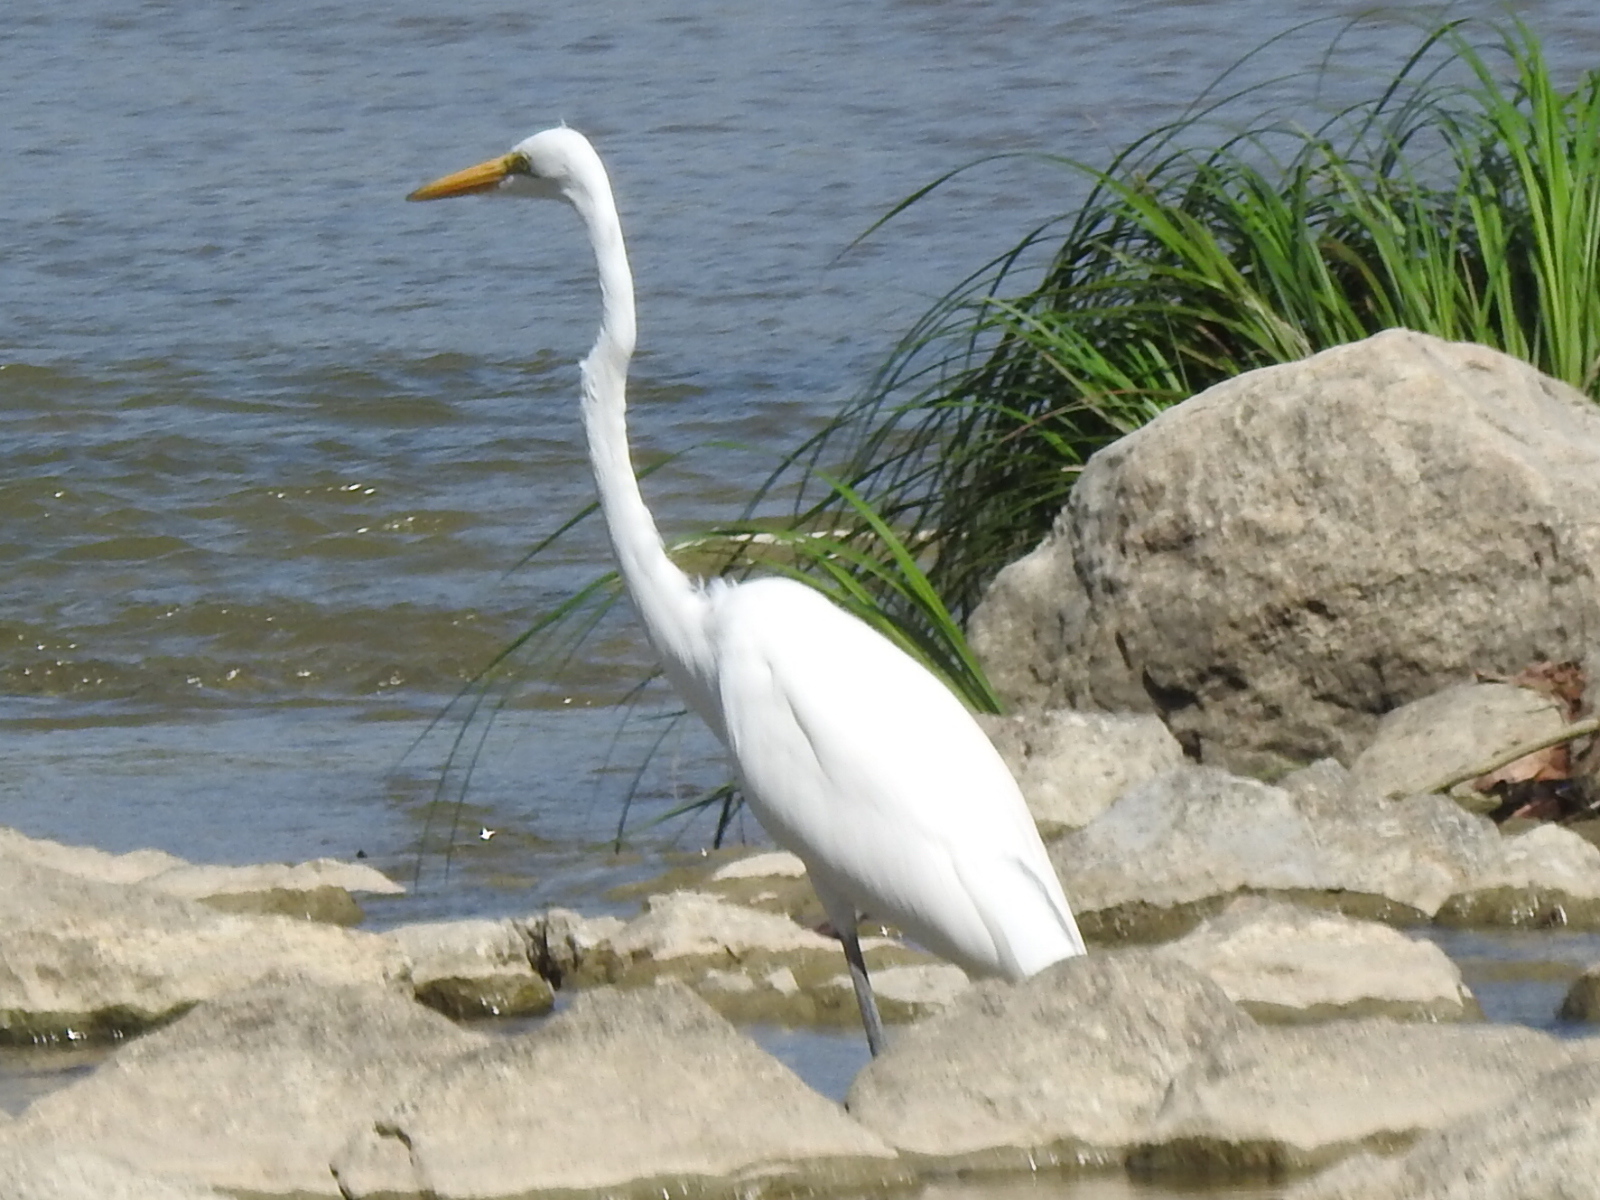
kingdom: Animalia
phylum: Chordata
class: Aves
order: Pelecaniformes
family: Ardeidae
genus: Ardea
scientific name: Ardea alba
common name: Great egret
